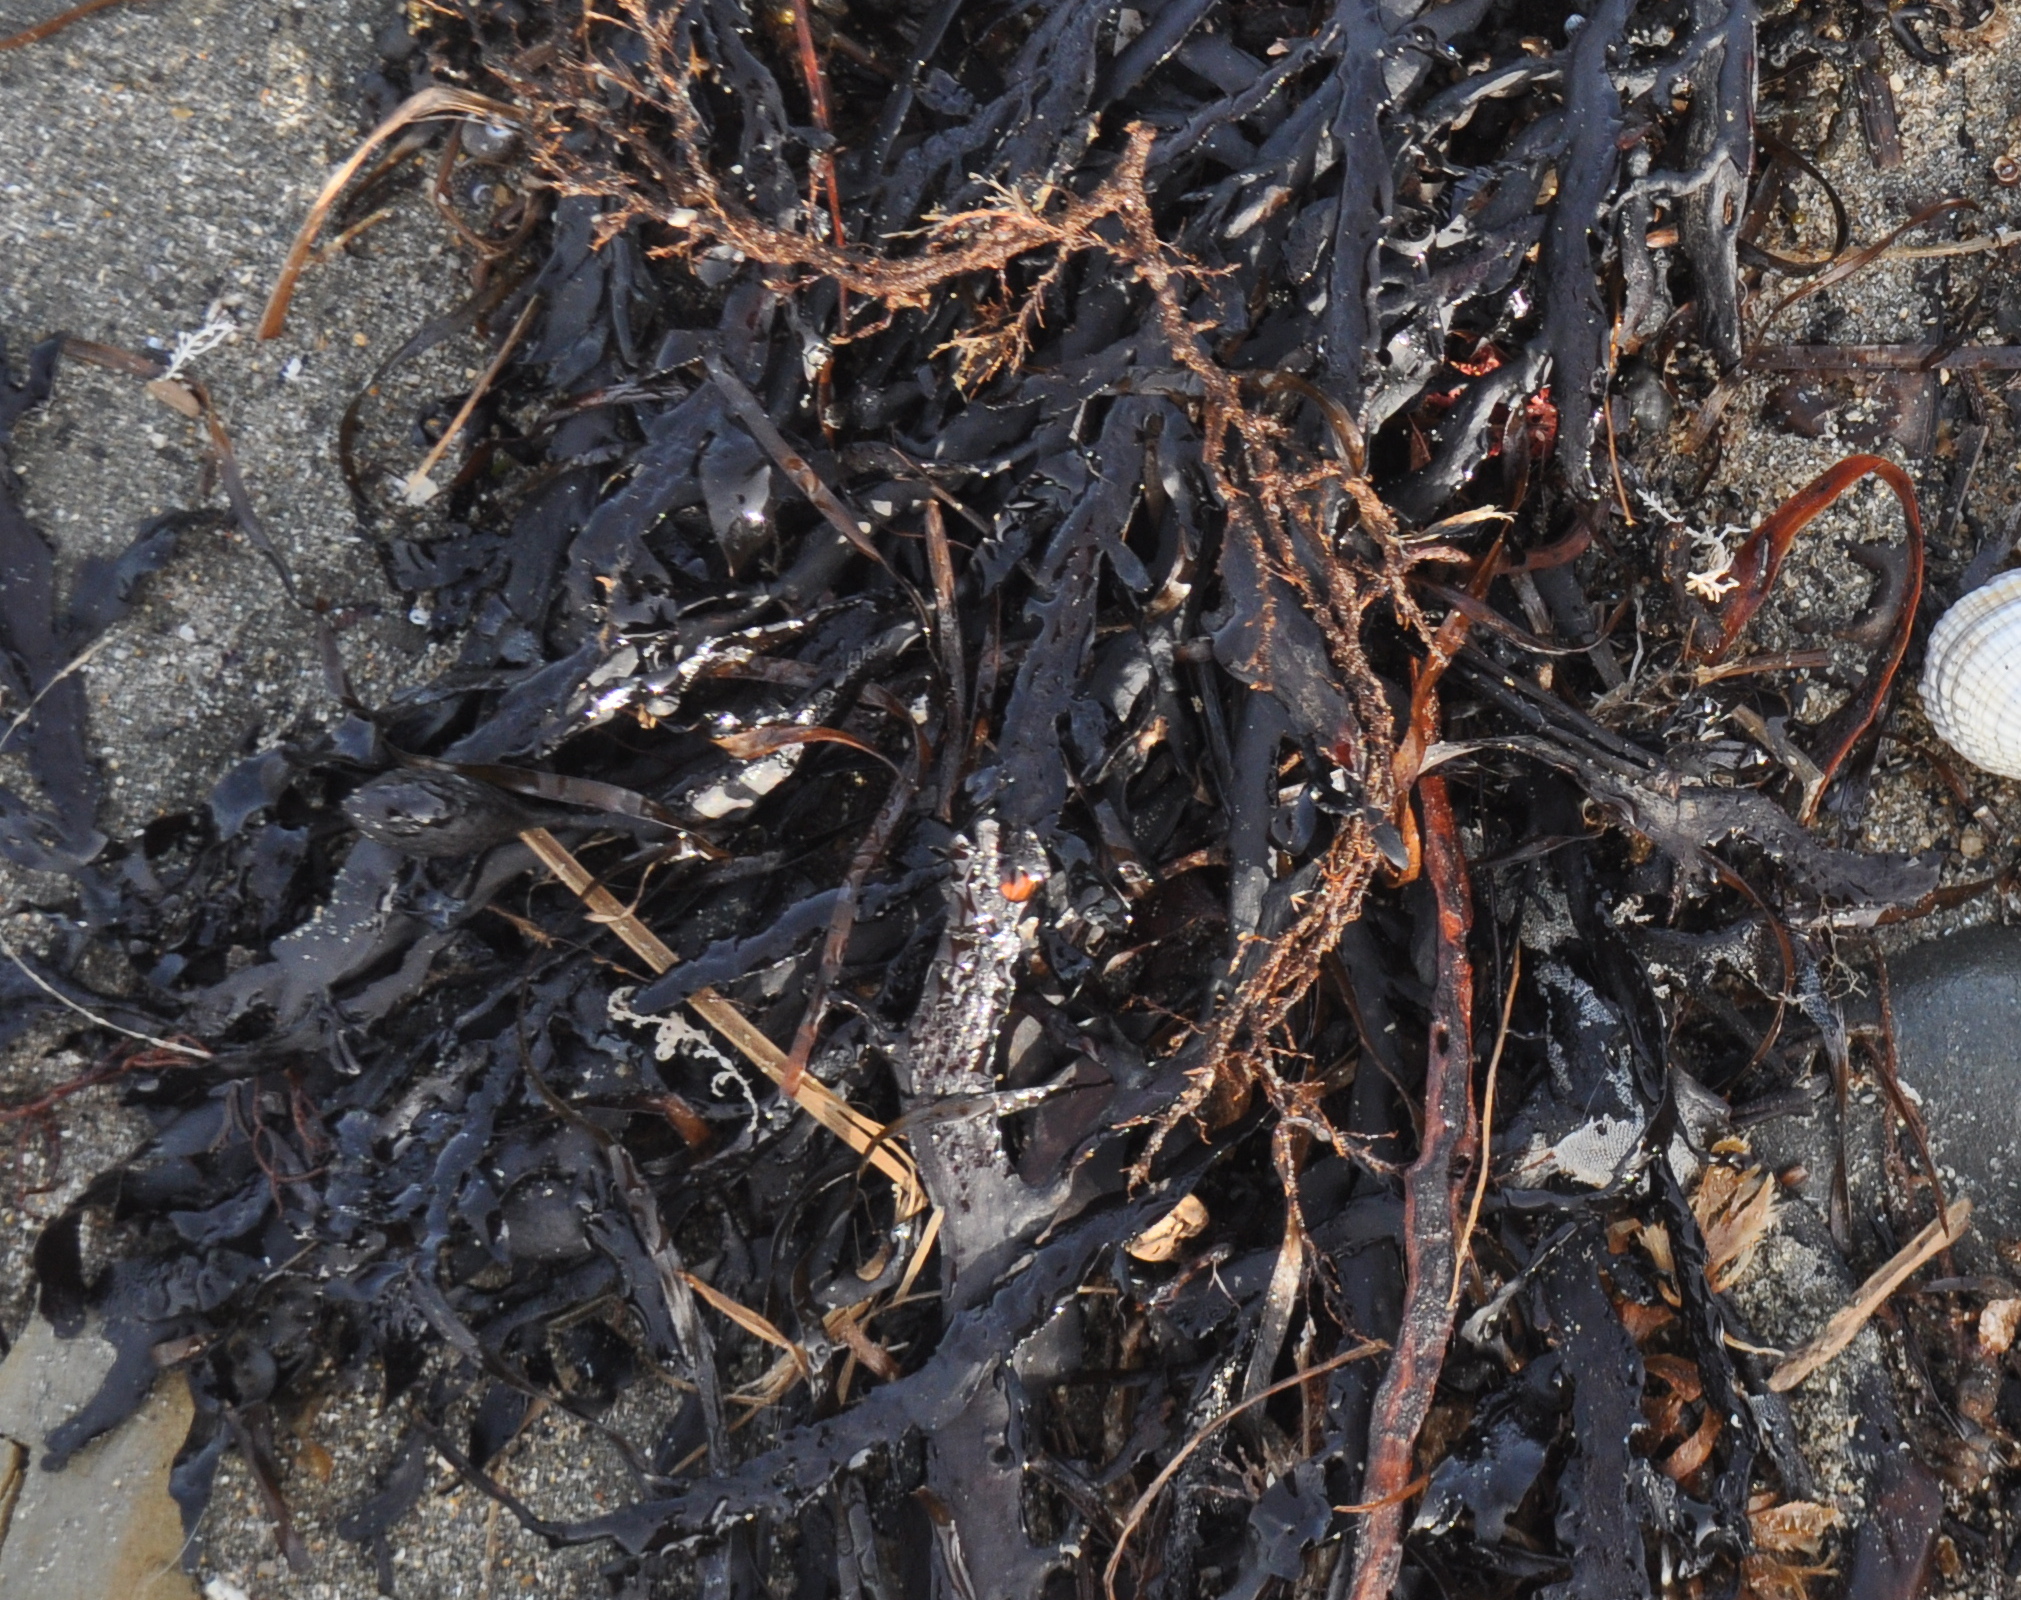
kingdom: Chromista
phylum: Ochrophyta
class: Phaeophyceae
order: Fucales
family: Sargassaceae
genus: Carpophyllum
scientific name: Carpophyllum maschalocarpum
